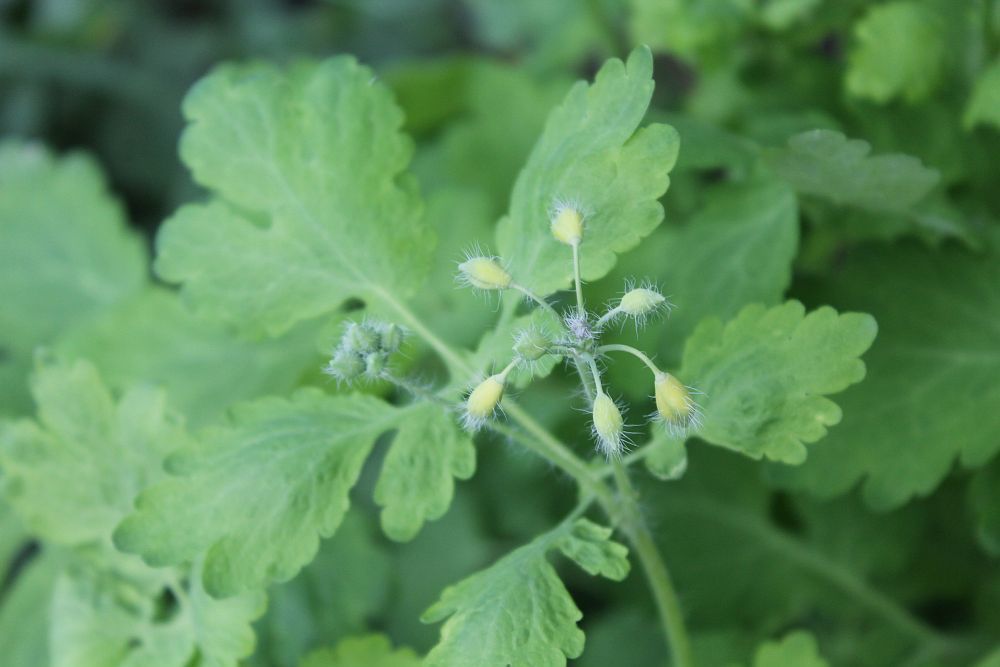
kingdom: Plantae
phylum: Tracheophyta
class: Magnoliopsida
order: Ranunculales
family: Papaveraceae
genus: Chelidonium
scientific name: Chelidonium majus
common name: Greater celandine
